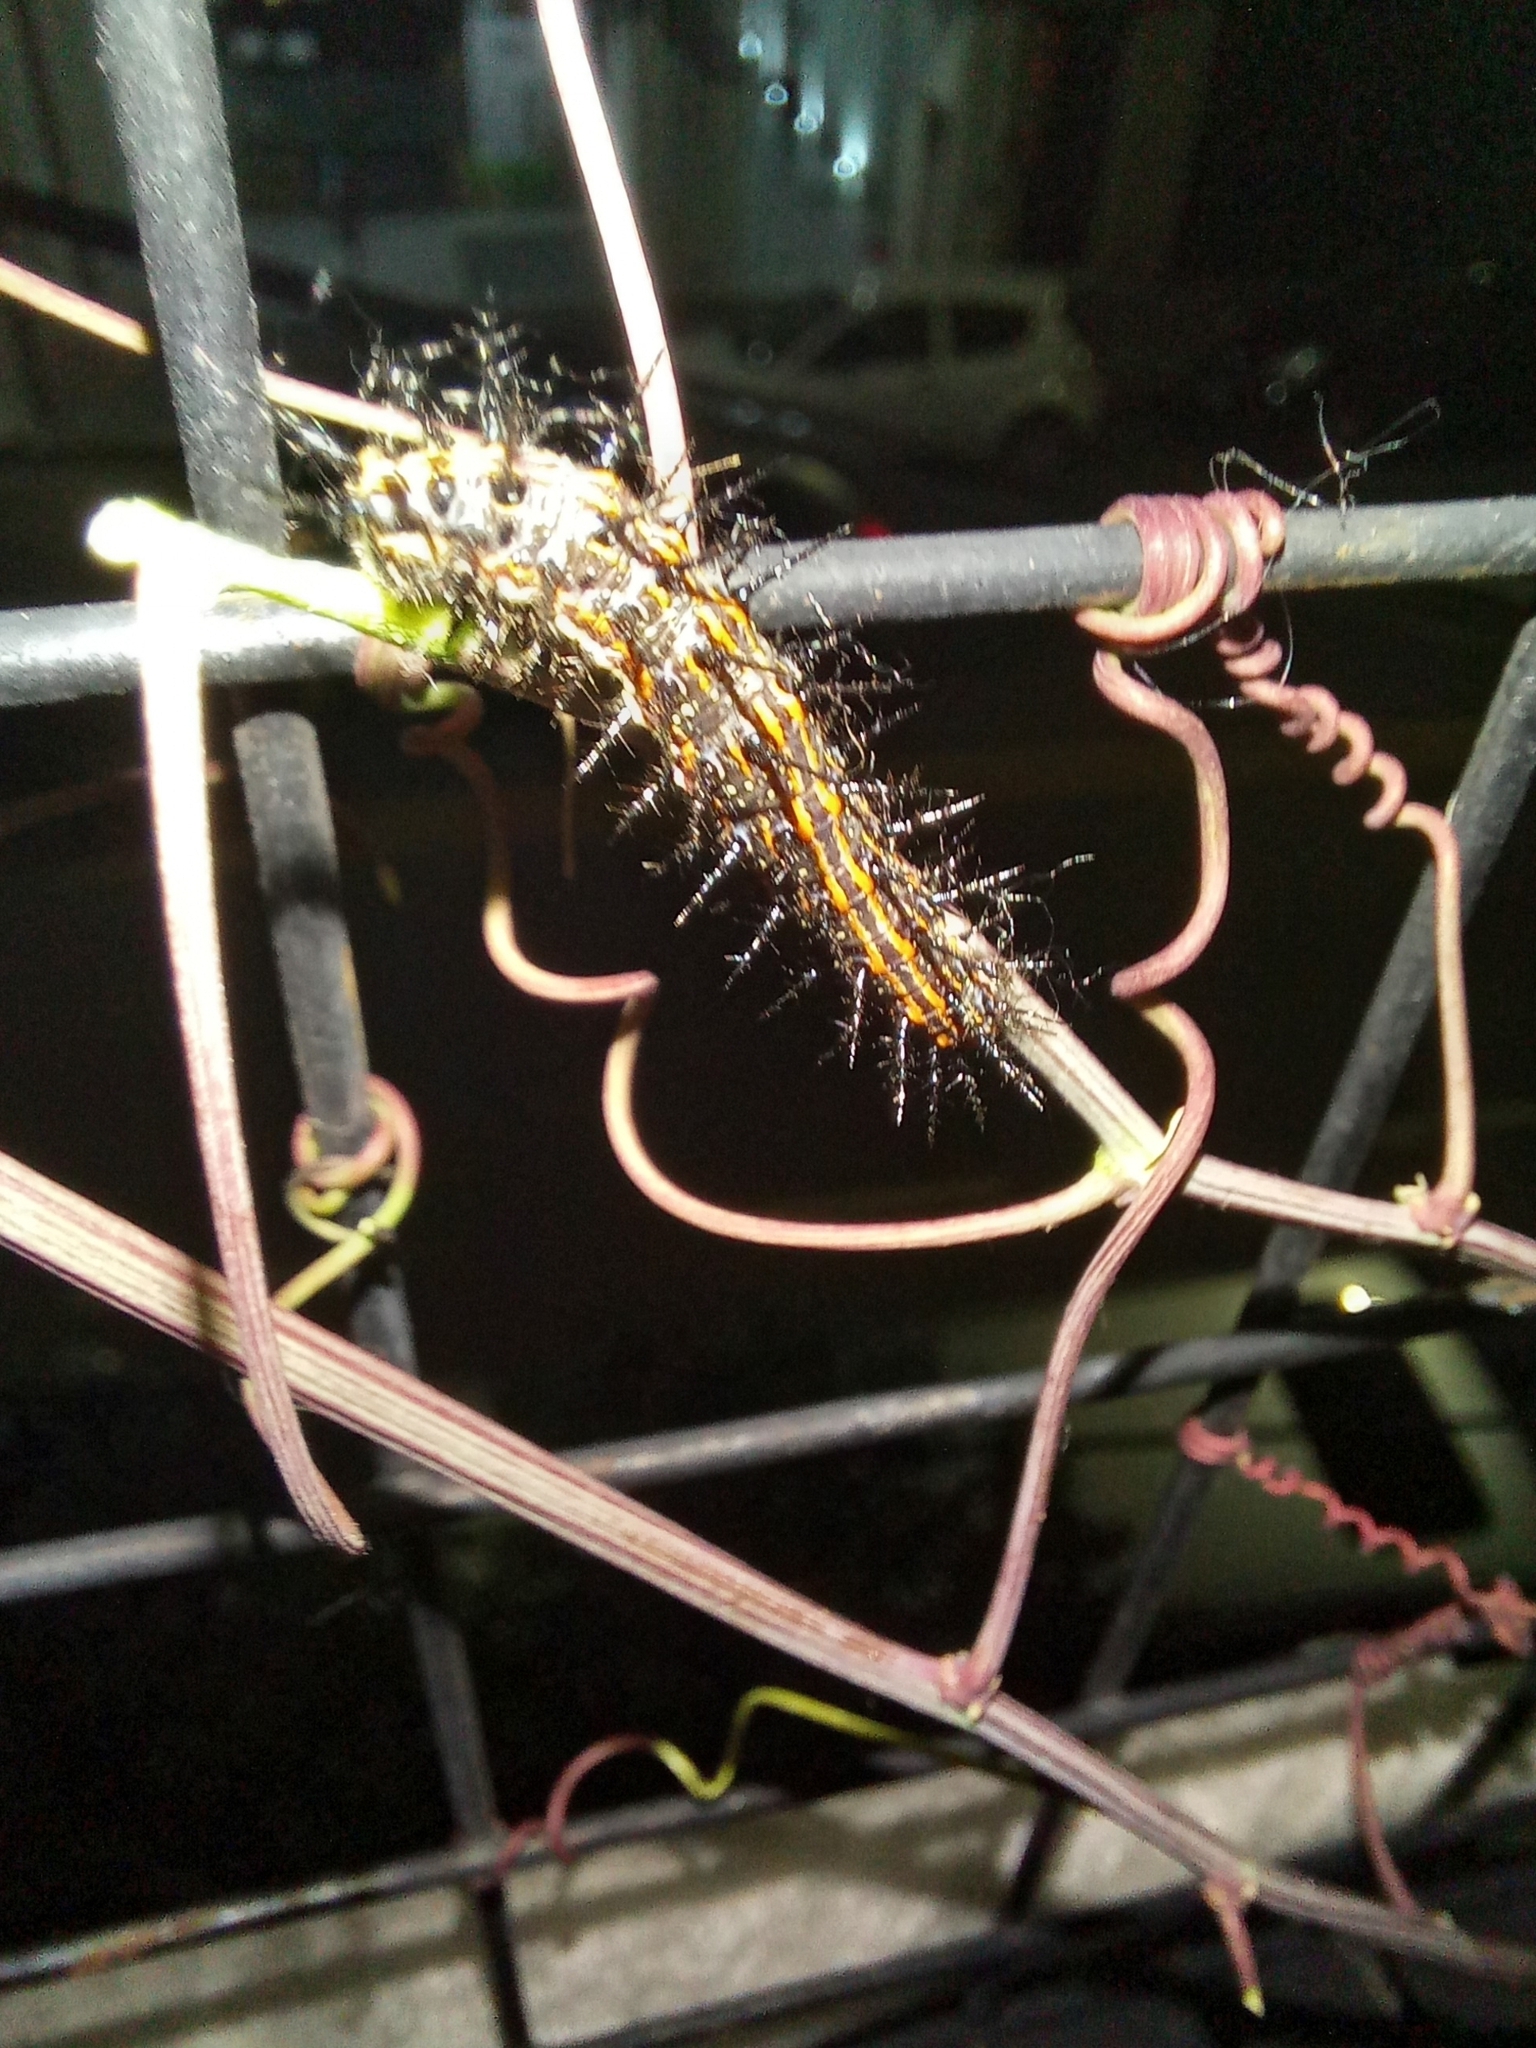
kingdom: Animalia
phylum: Arthropoda
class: Insecta
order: Lepidoptera
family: Nymphalidae
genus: Dione
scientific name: Dione vanillae
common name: Gulf fritillary
